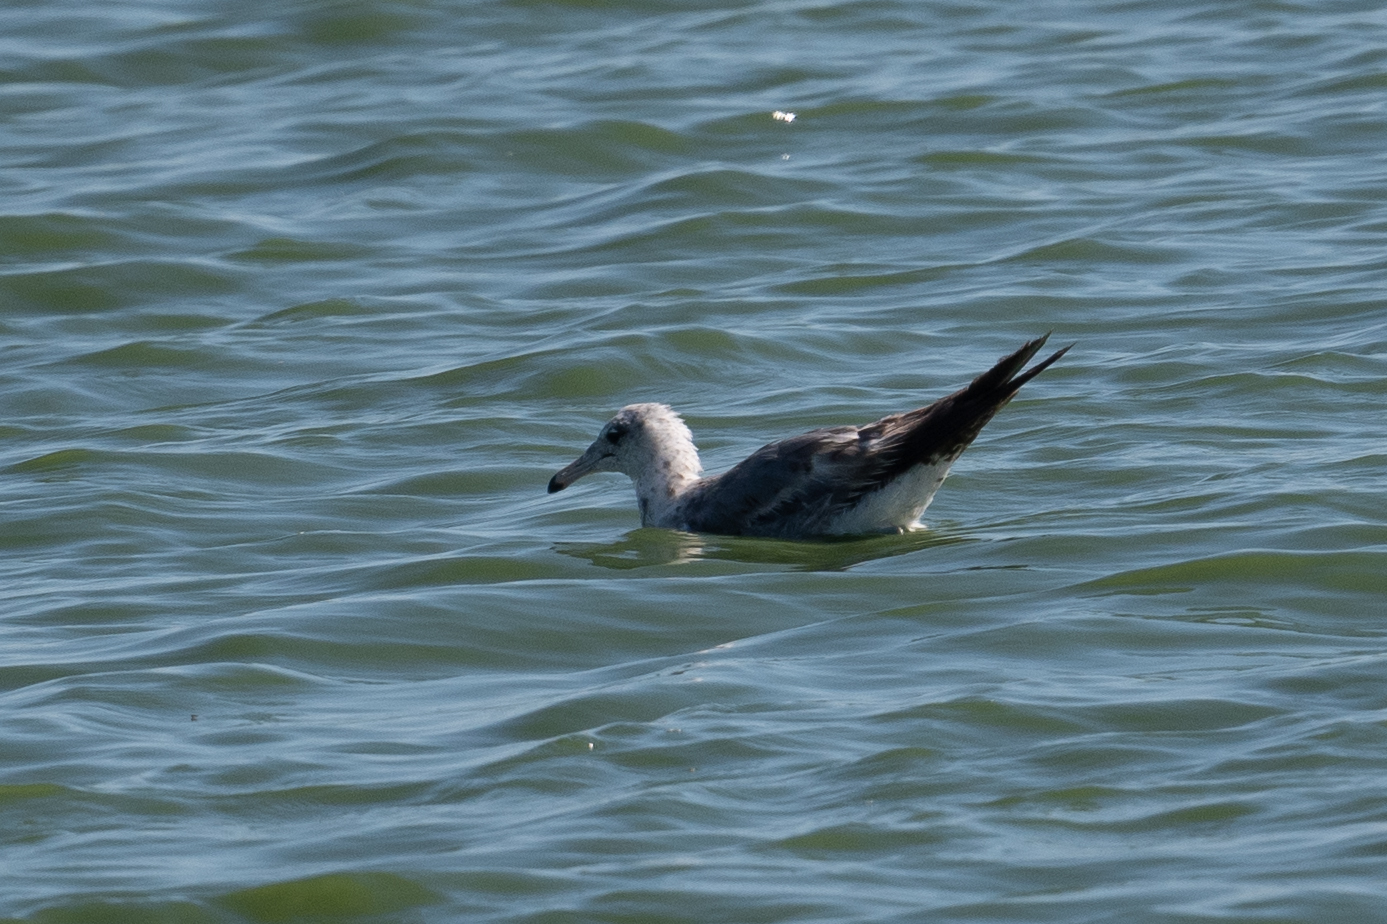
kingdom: Animalia
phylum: Chordata
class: Aves
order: Charadriiformes
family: Laridae
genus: Larus
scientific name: Larus californicus
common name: California gull
